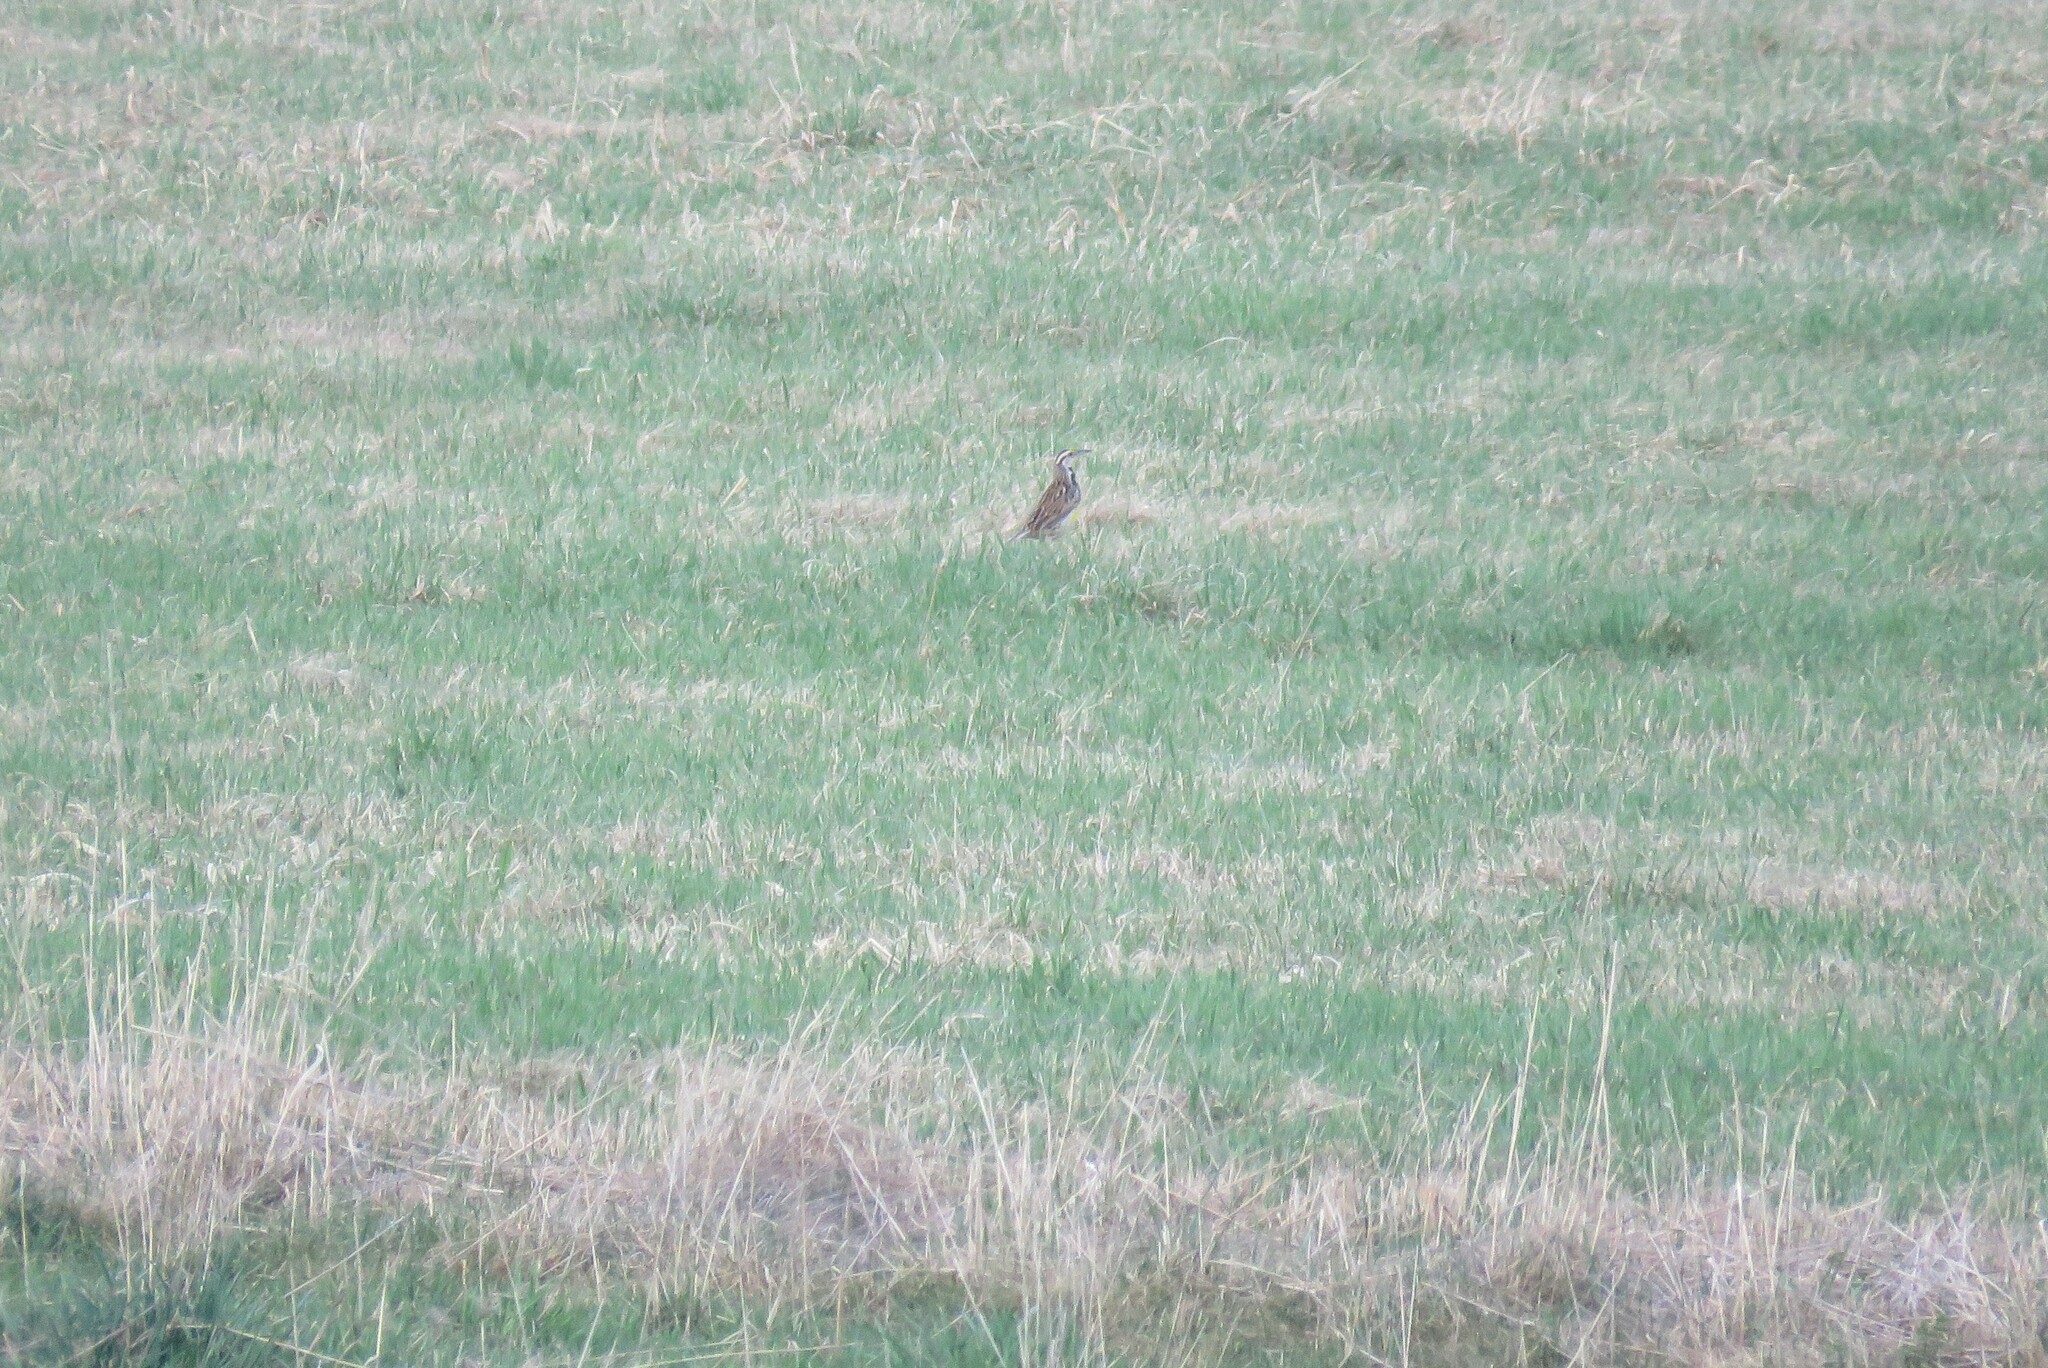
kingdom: Animalia
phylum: Chordata
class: Aves
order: Passeriformes
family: Icteridae
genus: Sturnella
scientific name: Sturnella magna
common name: Eastern meadowlark
